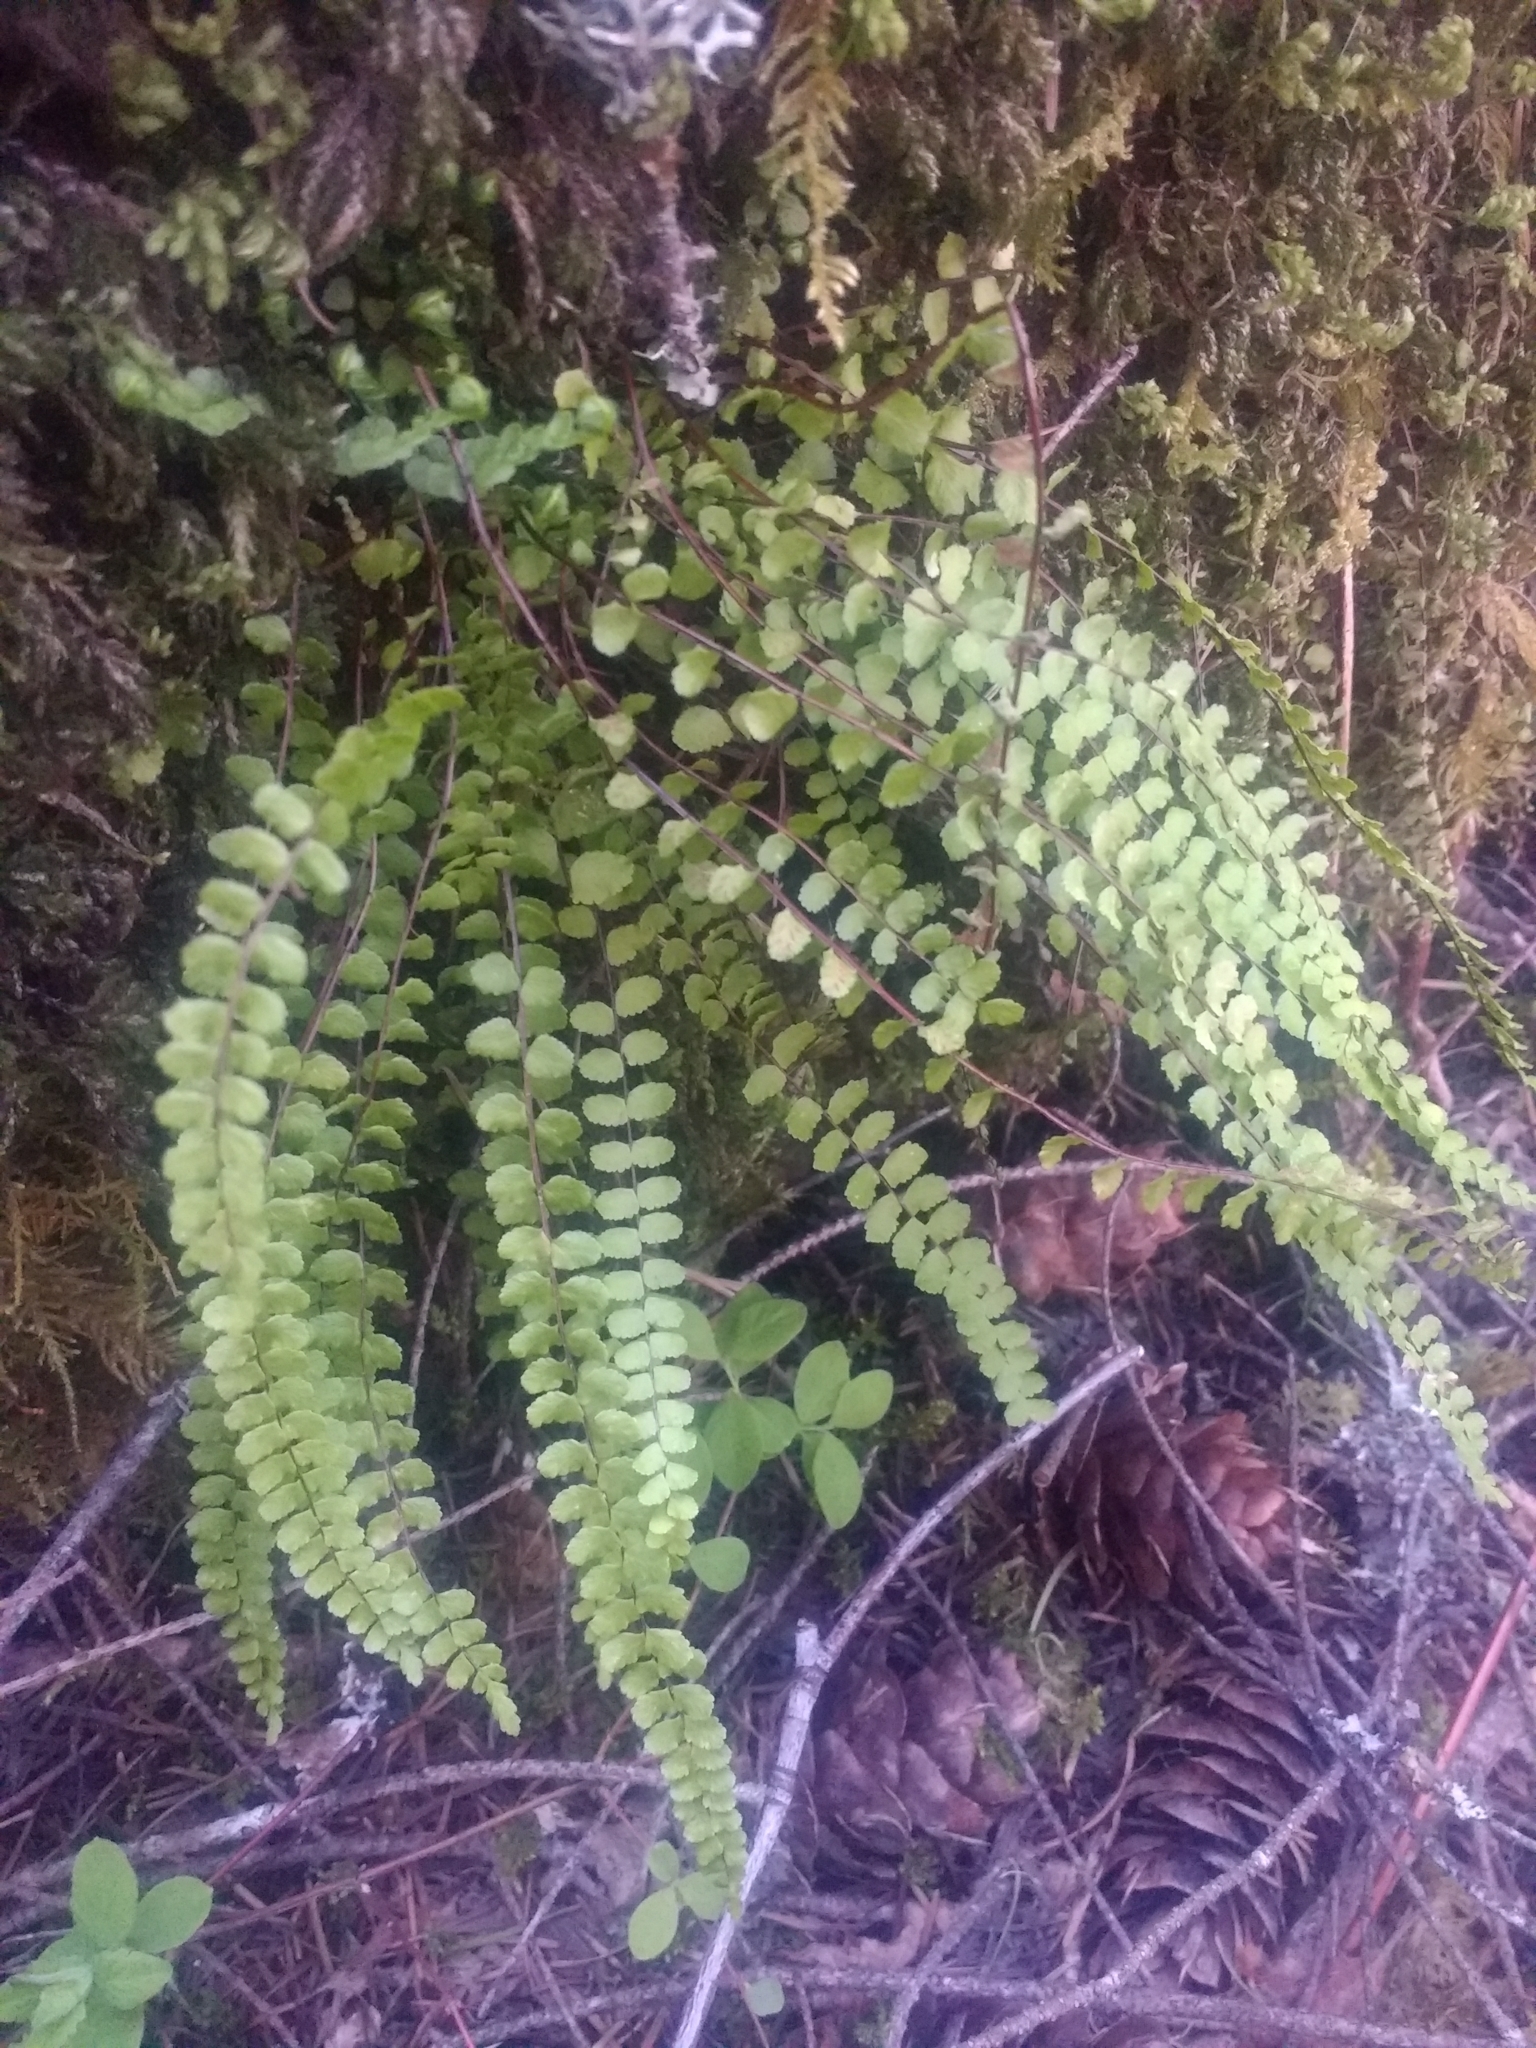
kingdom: Plantae
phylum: Tracheophyta
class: Polypodiopsida
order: Polypodiales
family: Aspleniaceae
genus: Asplenium
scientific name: Asplenium trichomanes
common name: Maidenhair spleenwort
